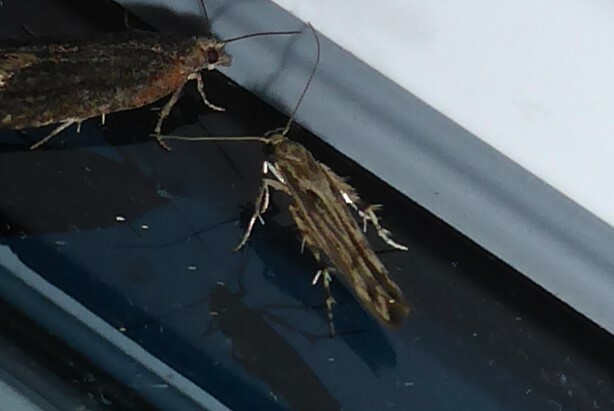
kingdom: Animalia
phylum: Arthropoda
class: Insecta
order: Lepidoptera
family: Stathmopodidae
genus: Stathmopoda
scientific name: Stathmopoda plumbiflua
